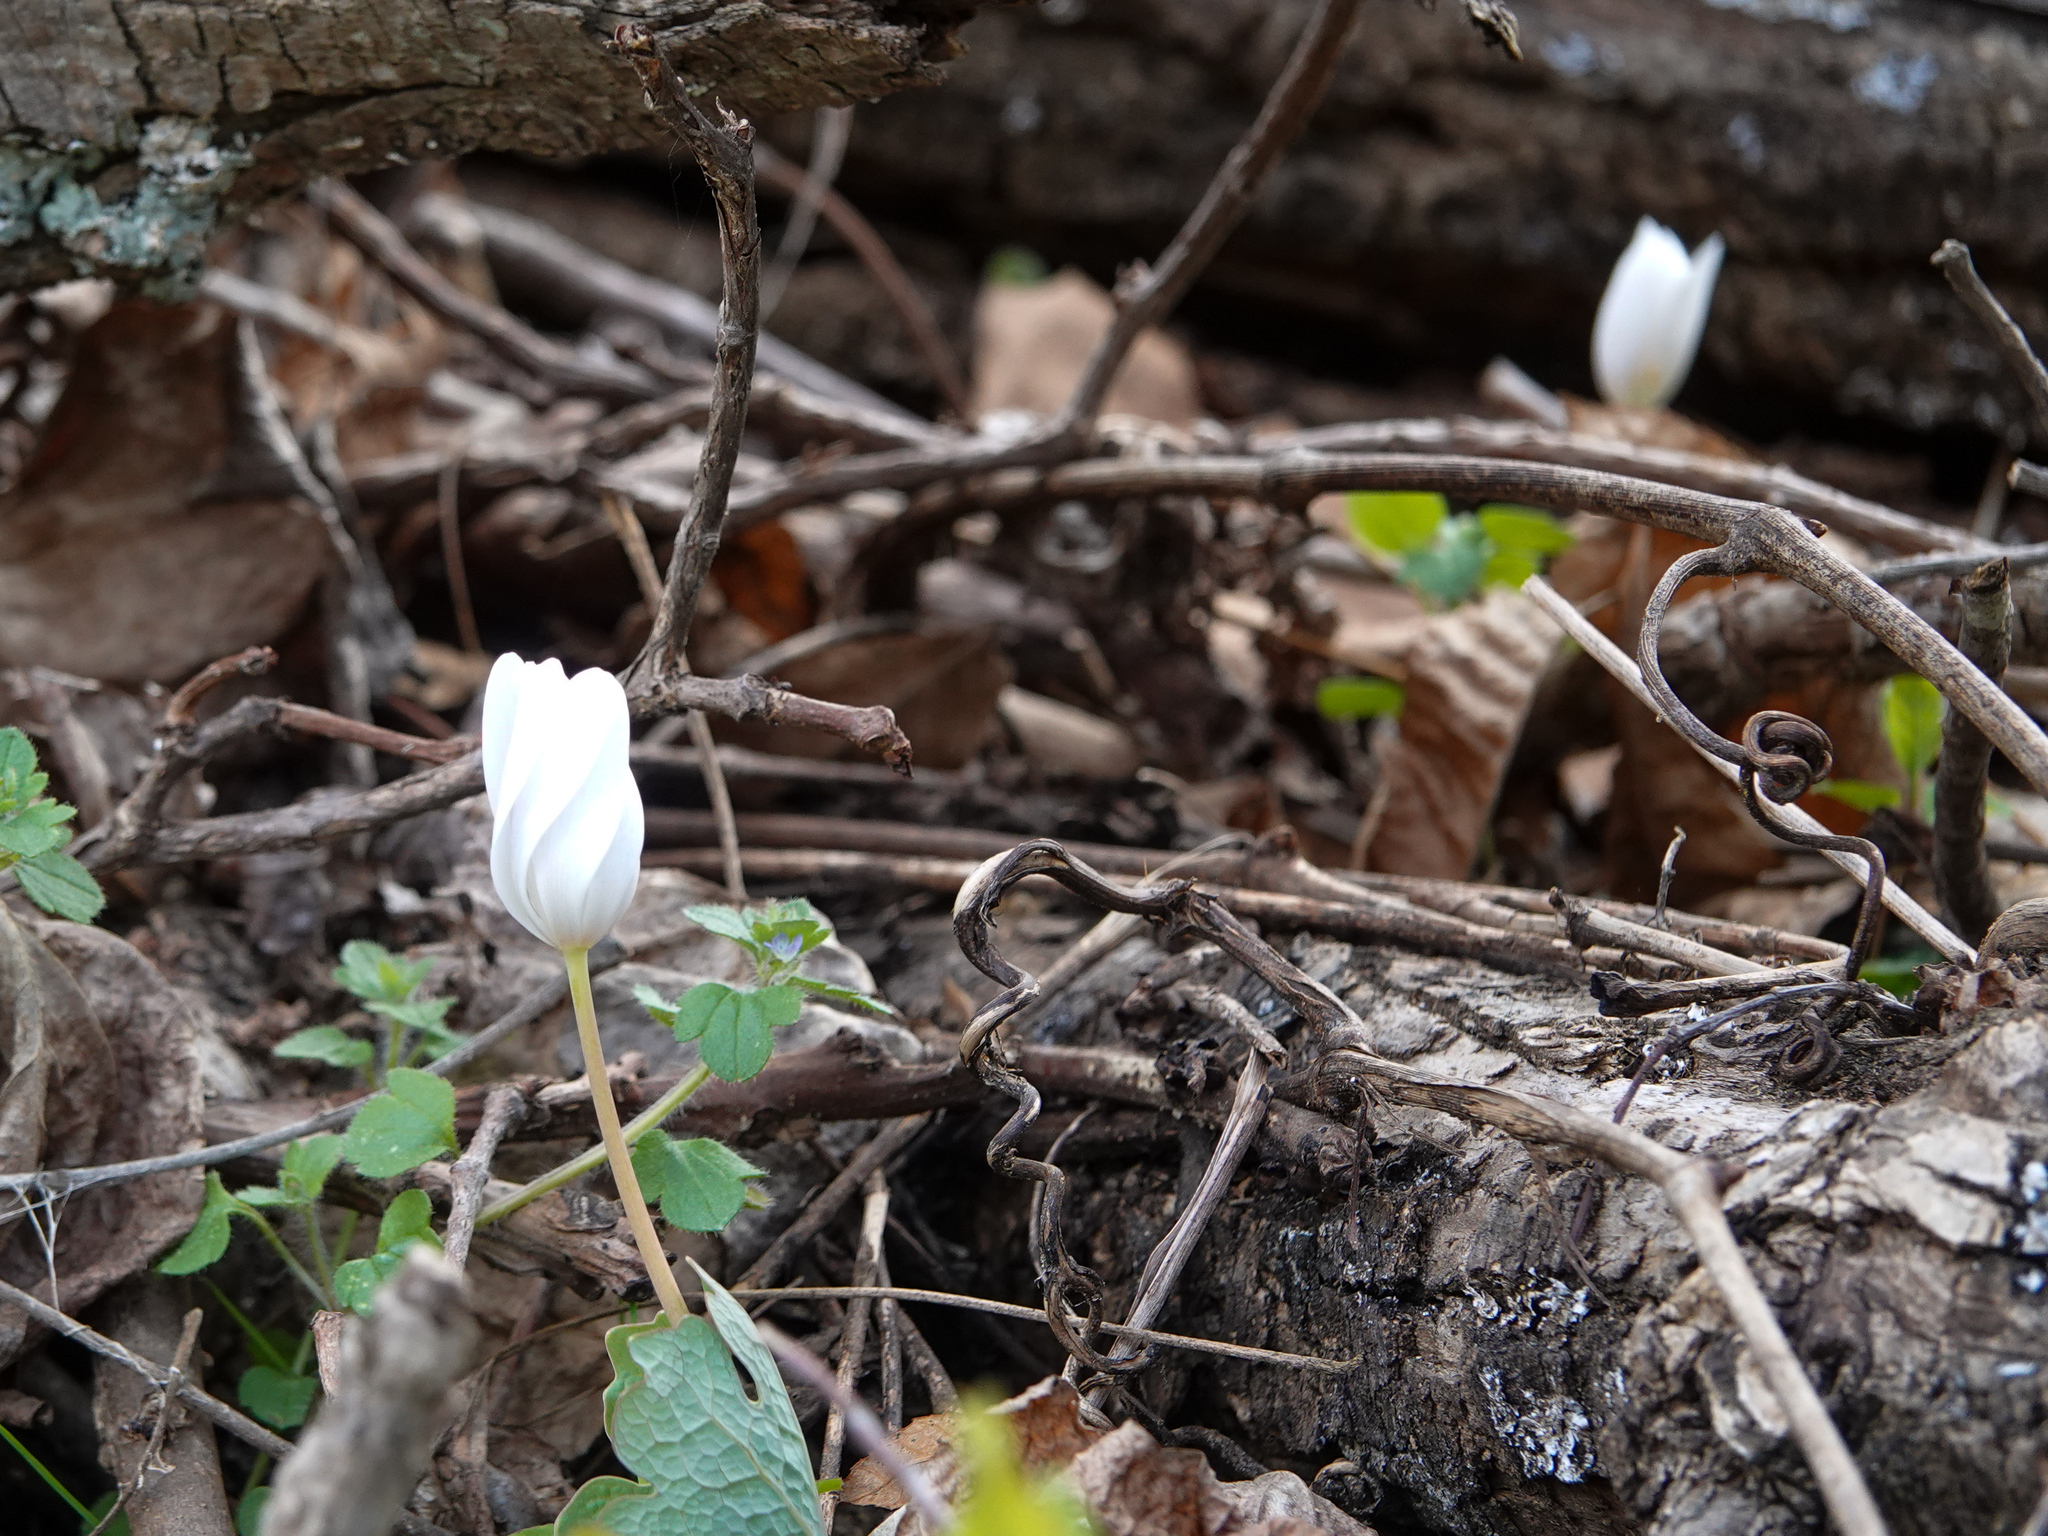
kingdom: Plantae
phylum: Tracheophyta
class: Magnoliopsida
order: Ranunculales
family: Papaveraceae
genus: Sanguinaria
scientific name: Sanguinaria canadensis
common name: Bloodroot
